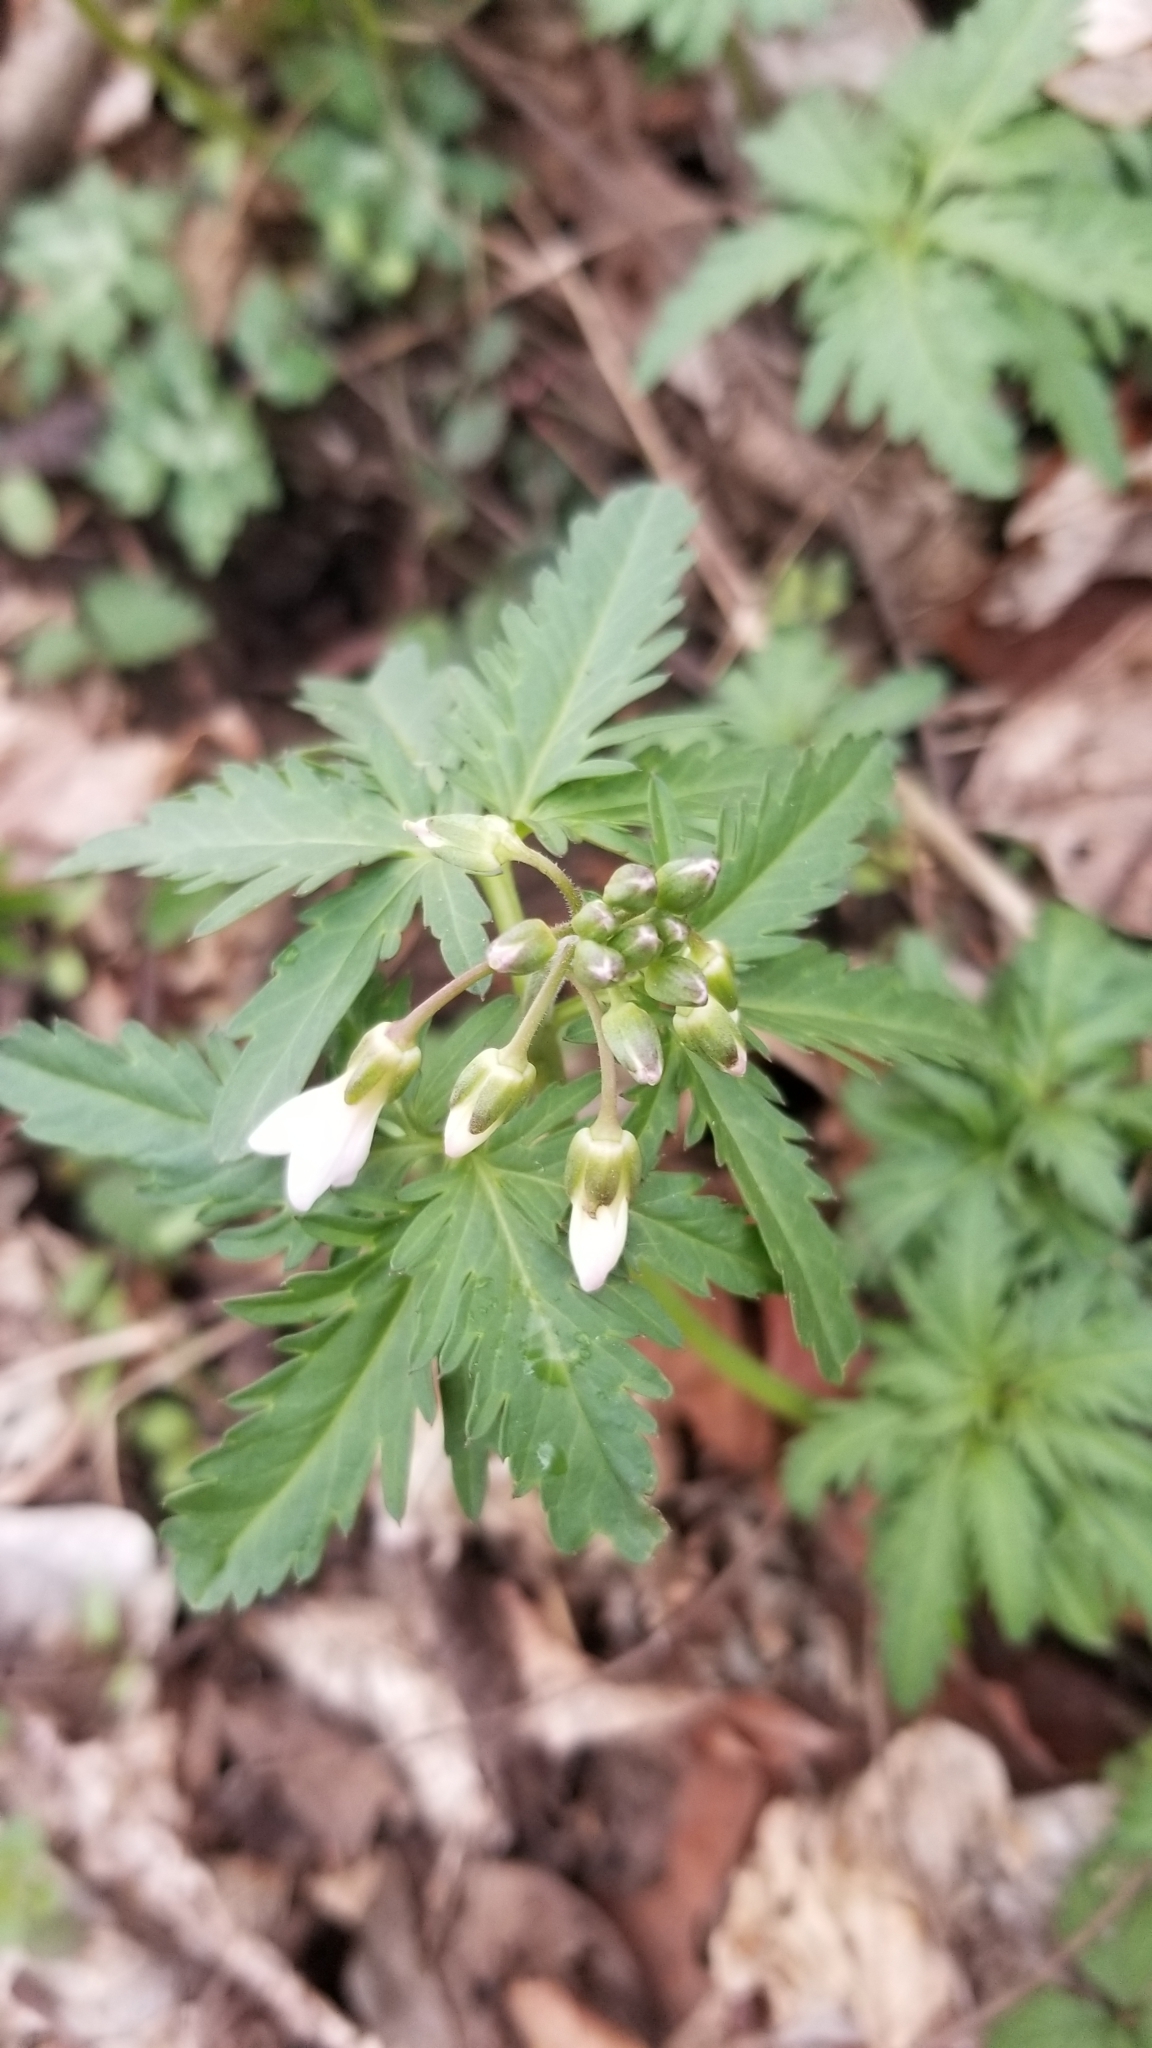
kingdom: Plantae
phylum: Tracheophyta
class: Magnoliopsida
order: Brassicales
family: Brassicaceae
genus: Cardamine
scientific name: Cardamine concatenata
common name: Cut-leaf toothcup
